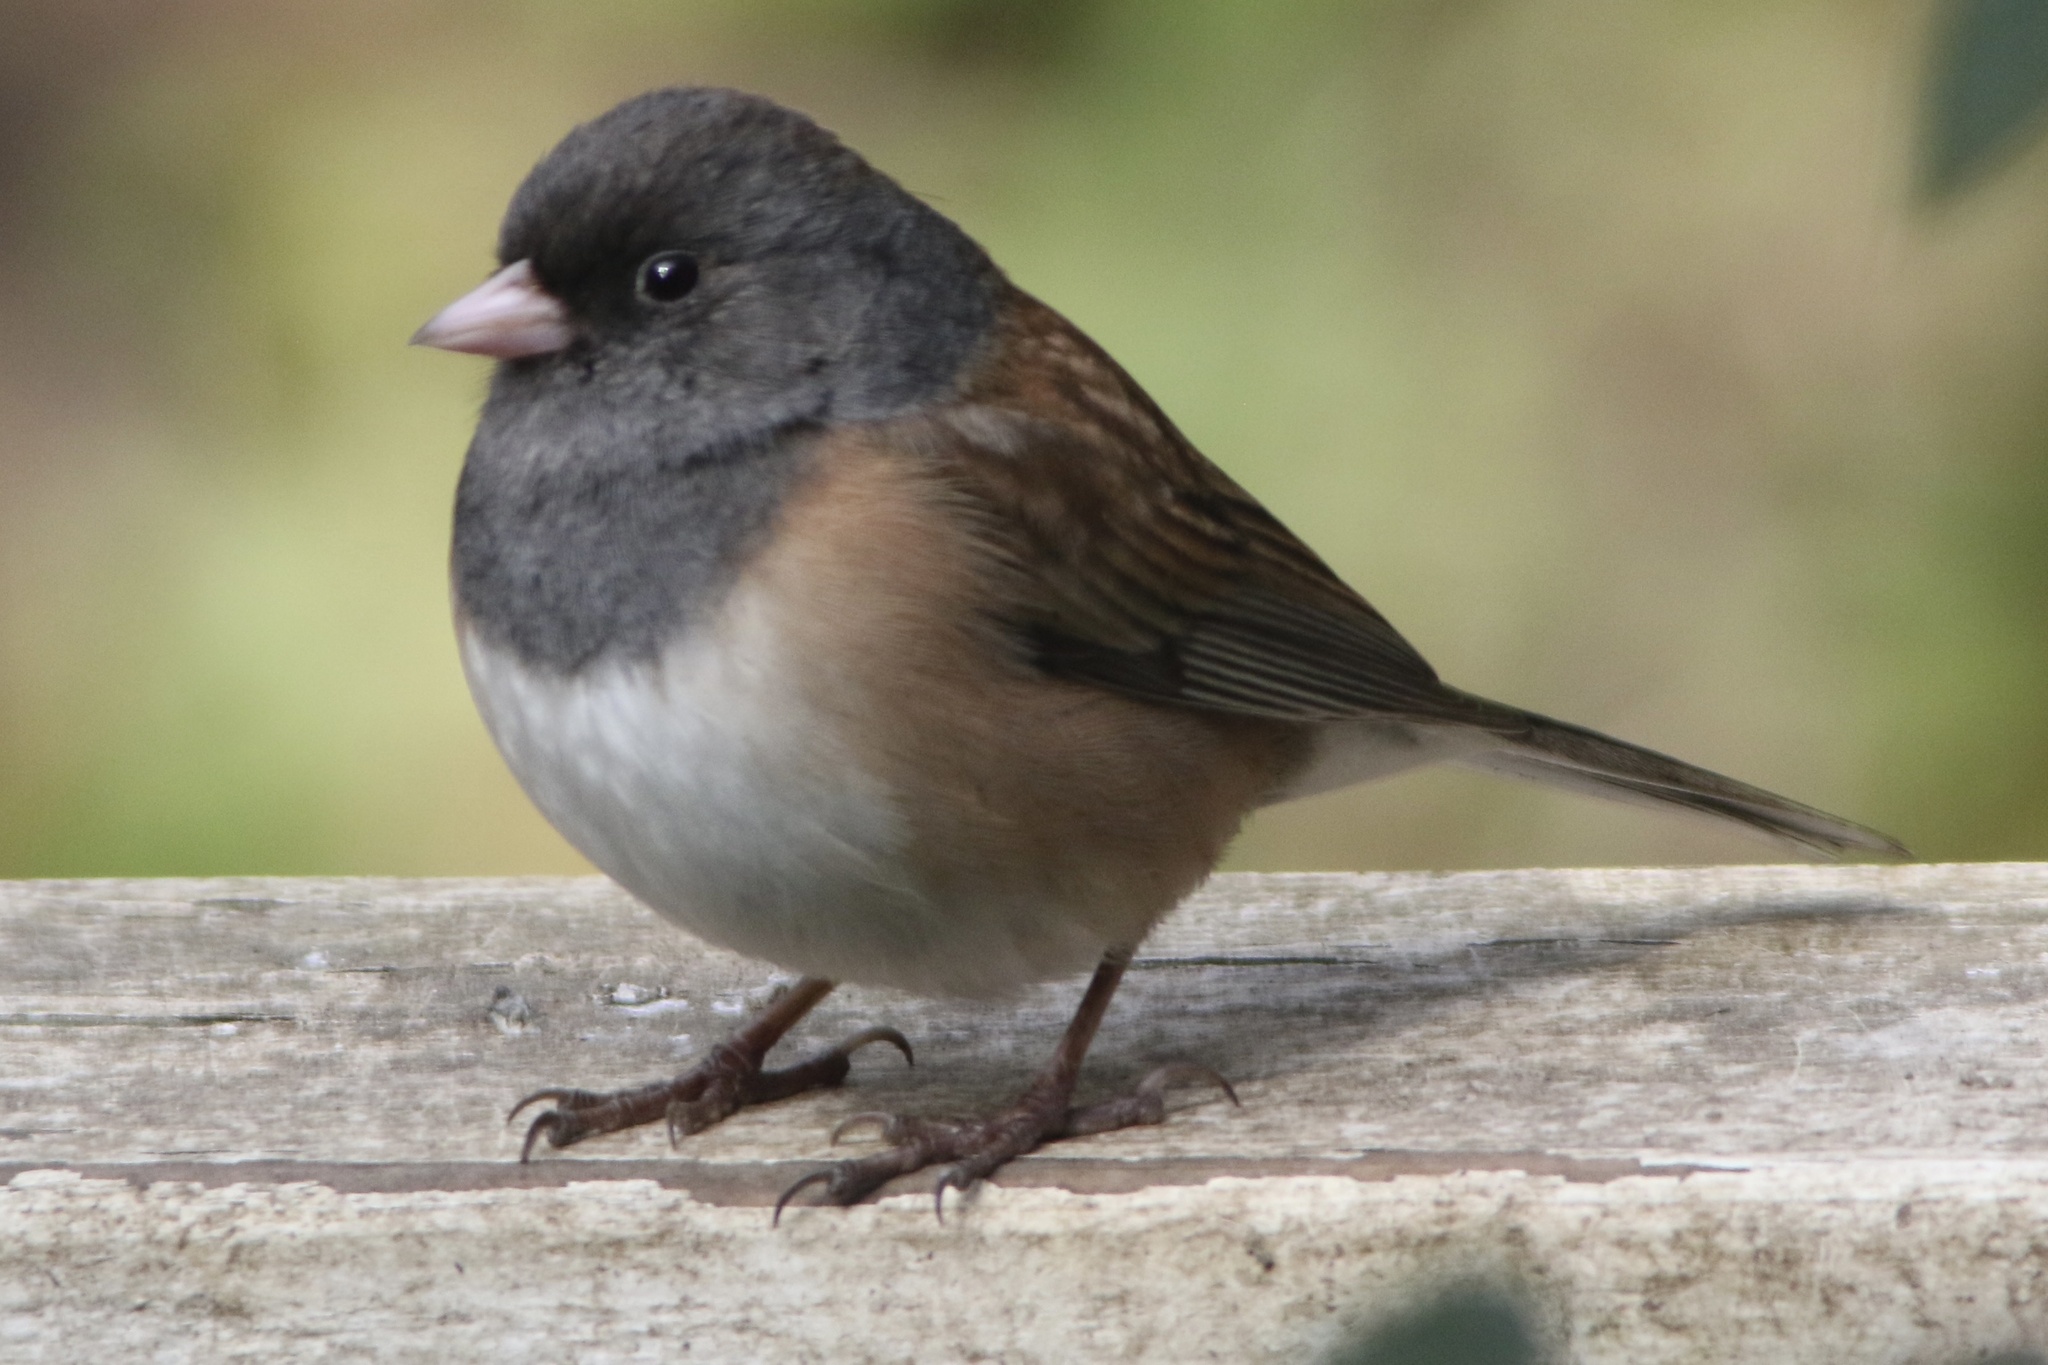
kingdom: Animalia
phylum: Chordata
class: Aves
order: Passeriformes
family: Passerellidae
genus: Junco
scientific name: Junco hyemalis
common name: Dark-eyed junco
